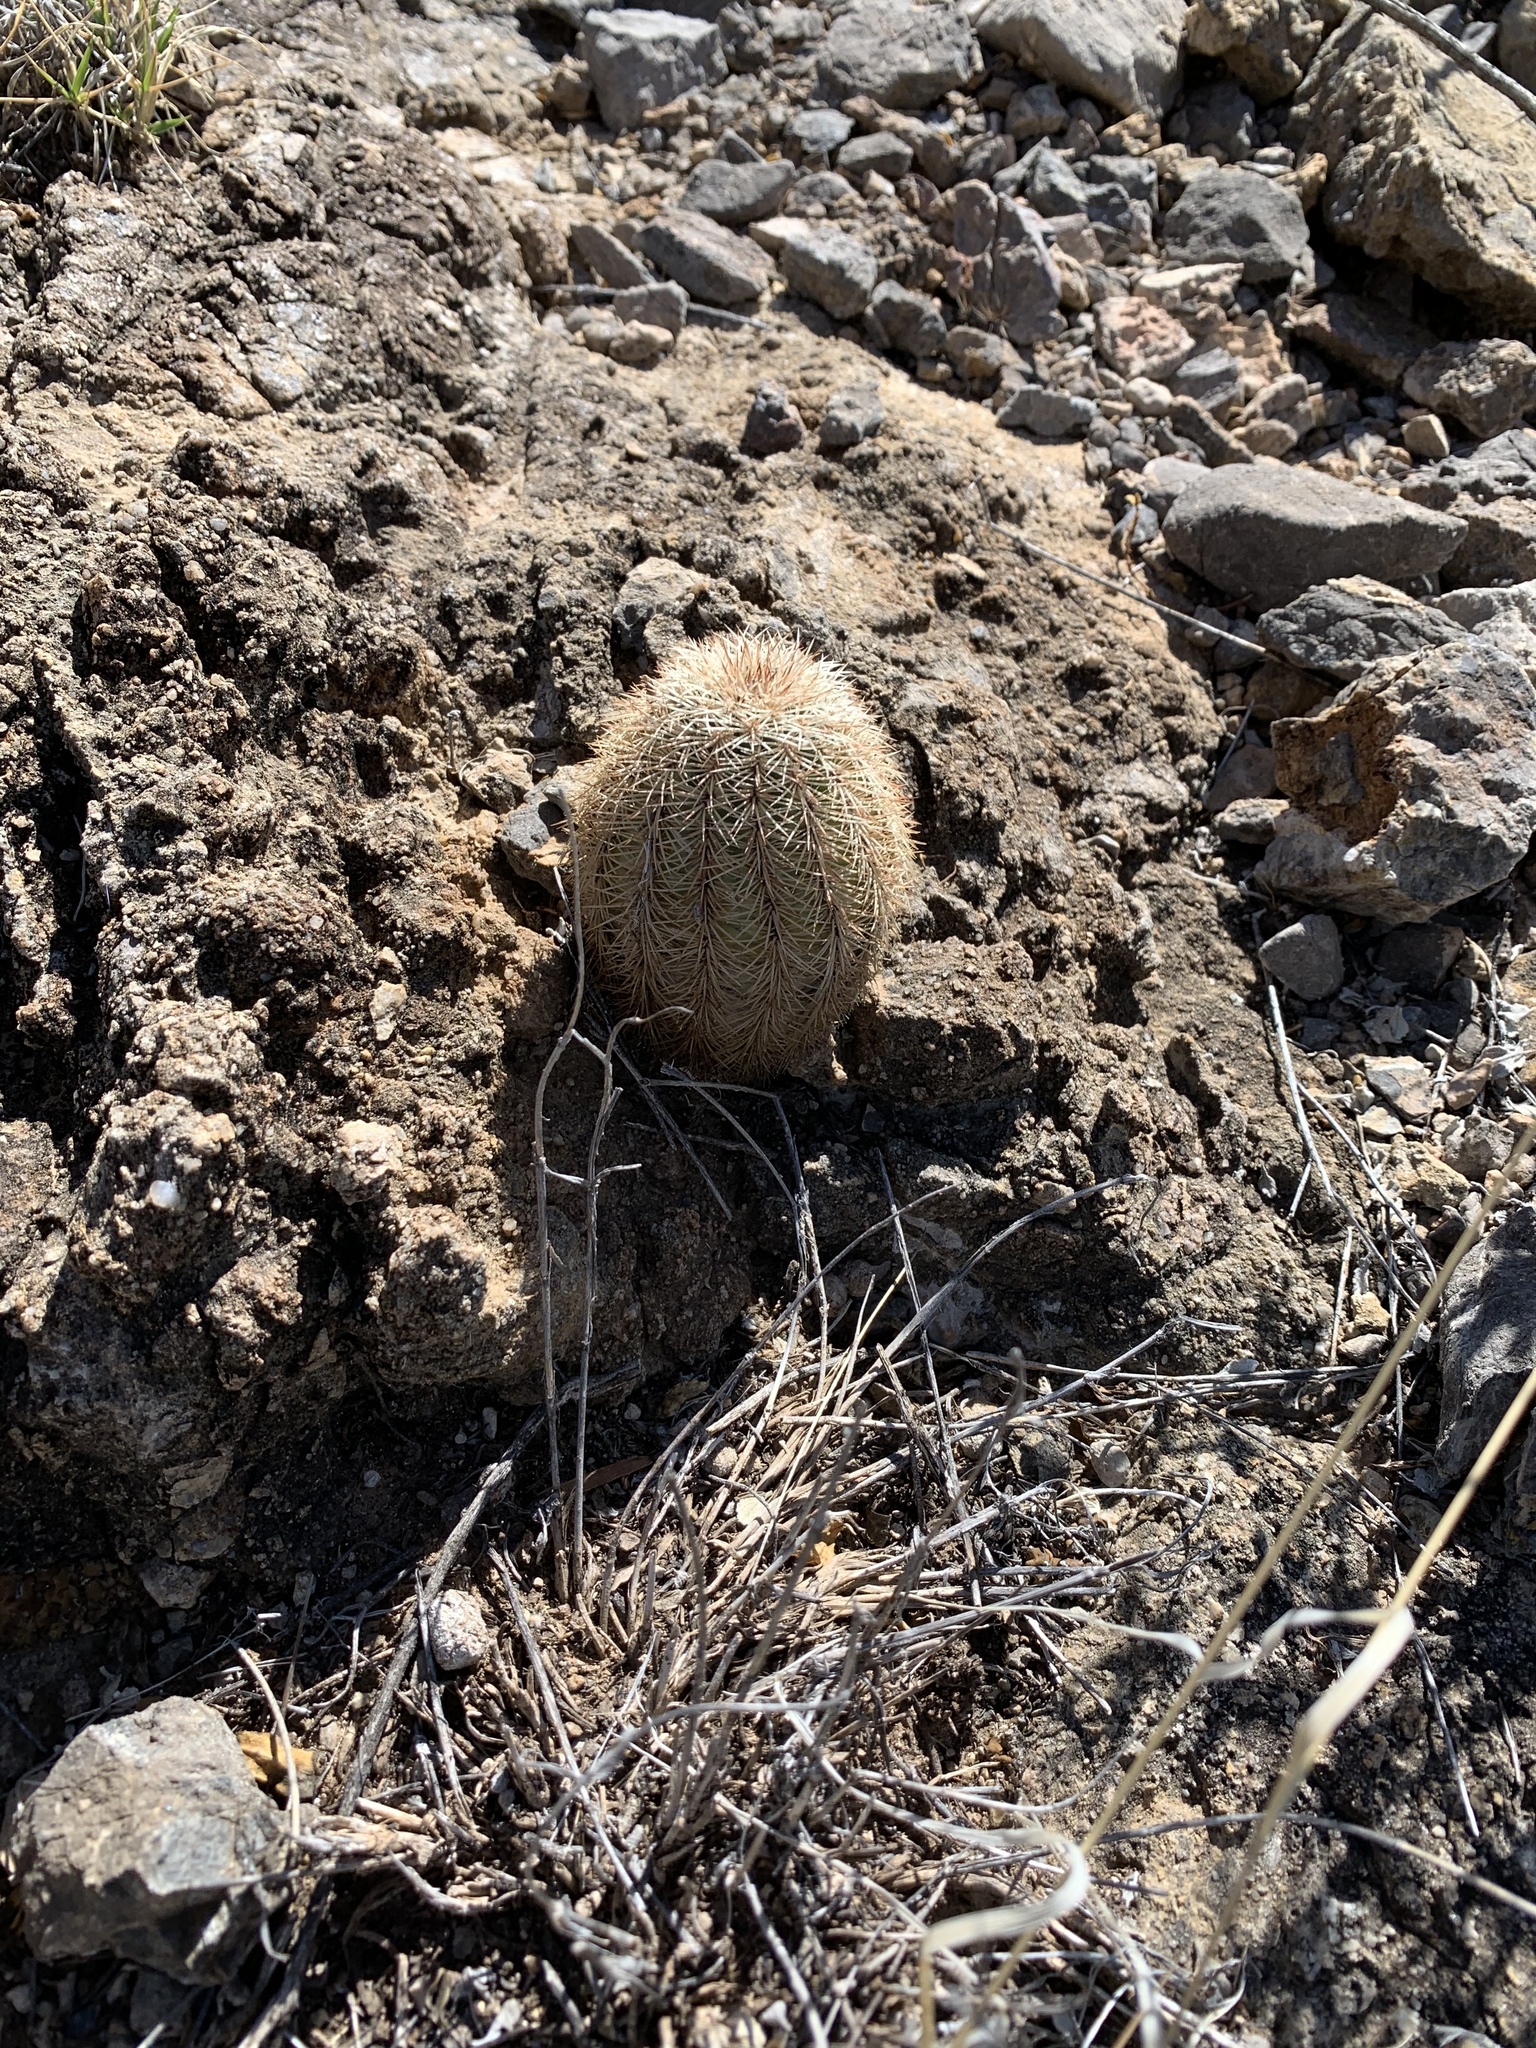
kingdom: Plantae
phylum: Tracheophyta
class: Magnoliopsida
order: Caryophyllales
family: Cactaceae
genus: Echinocereus
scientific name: Echinocereus dasyacanthus
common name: Spiny hedgehog cactus
